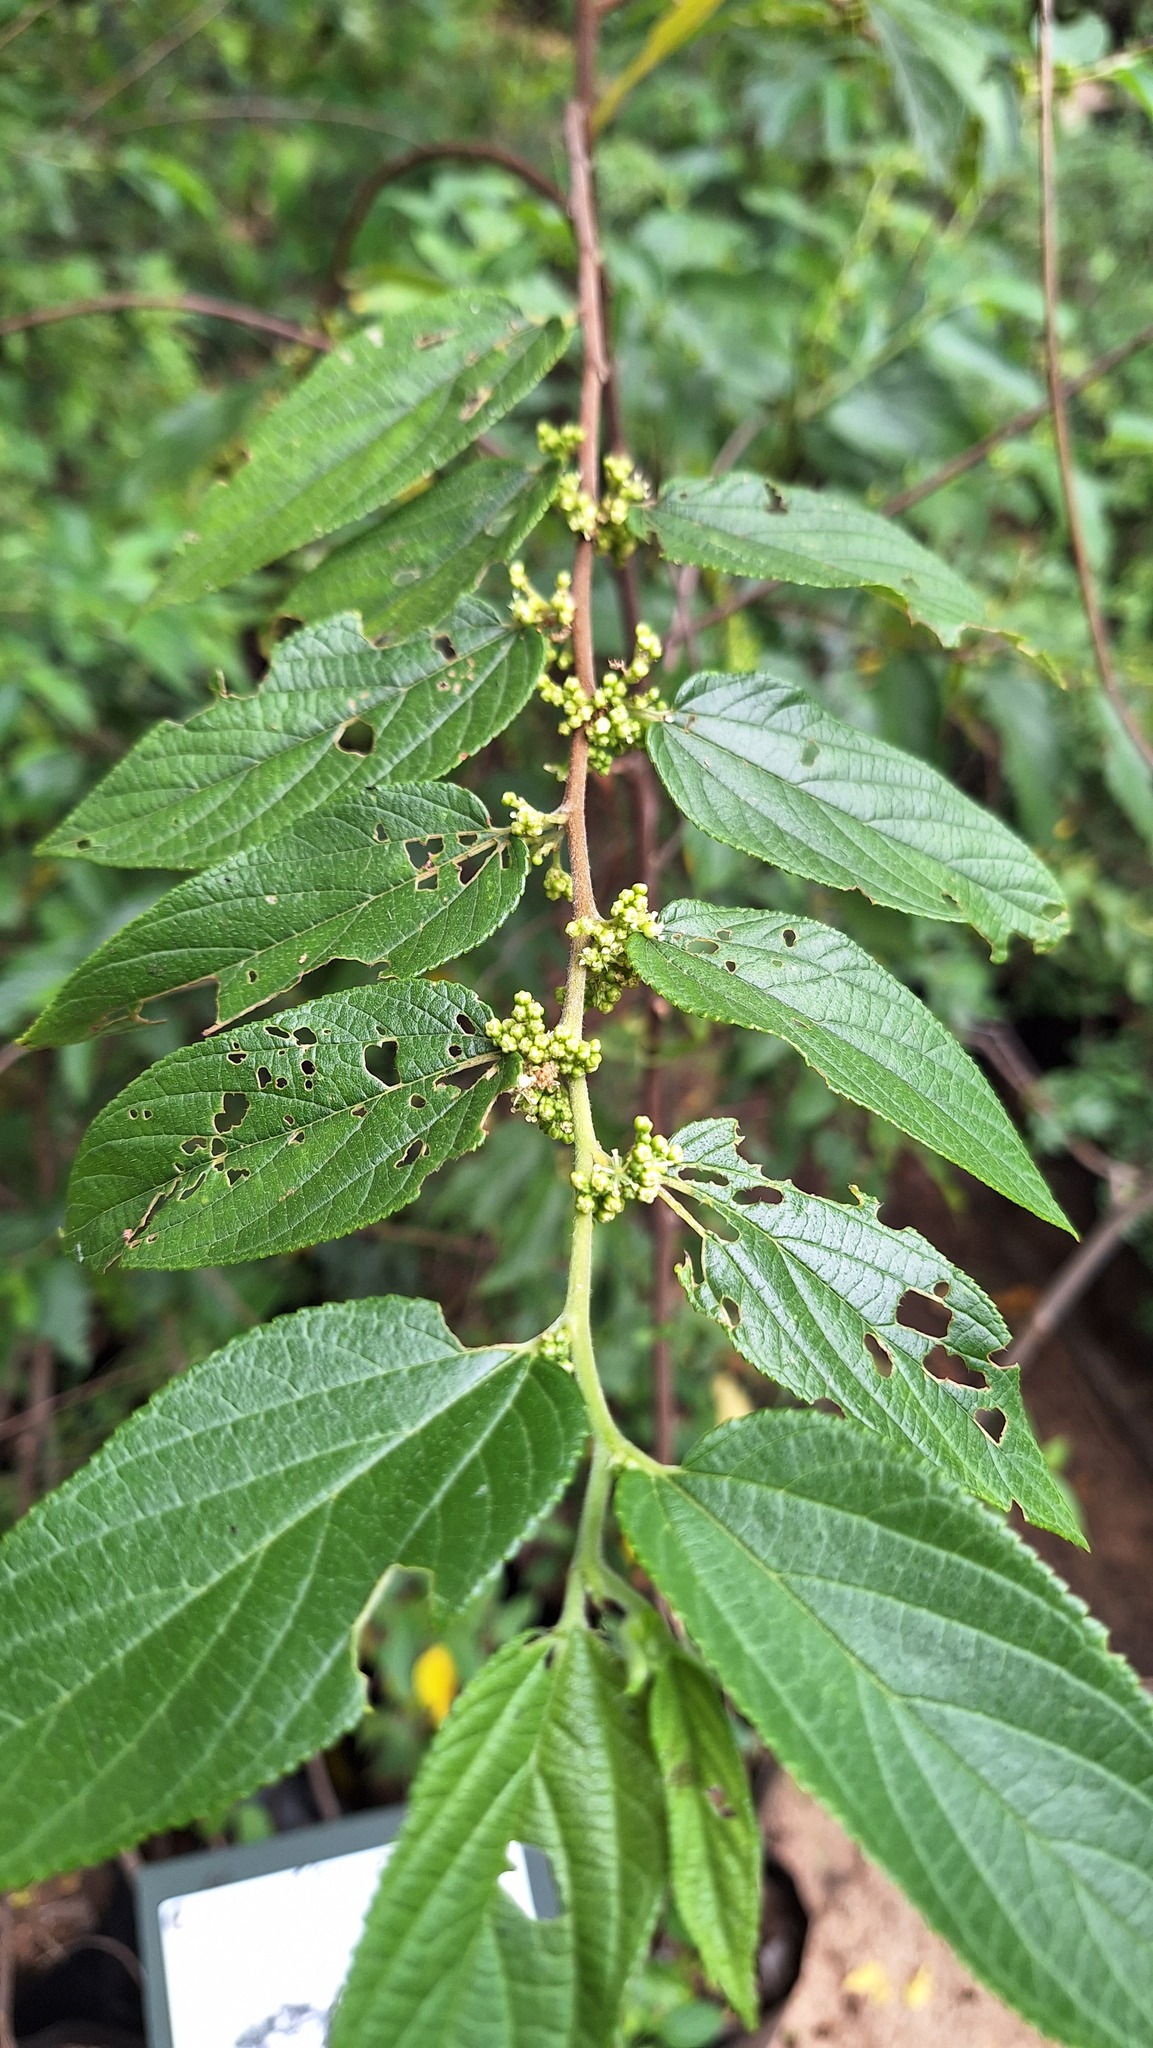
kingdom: Plantae
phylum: Tracheophyta
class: Magnoliopsida
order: Rosales
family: Cannabaceae
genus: Trema
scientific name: Trema orientale
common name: Indian charcoal tree
